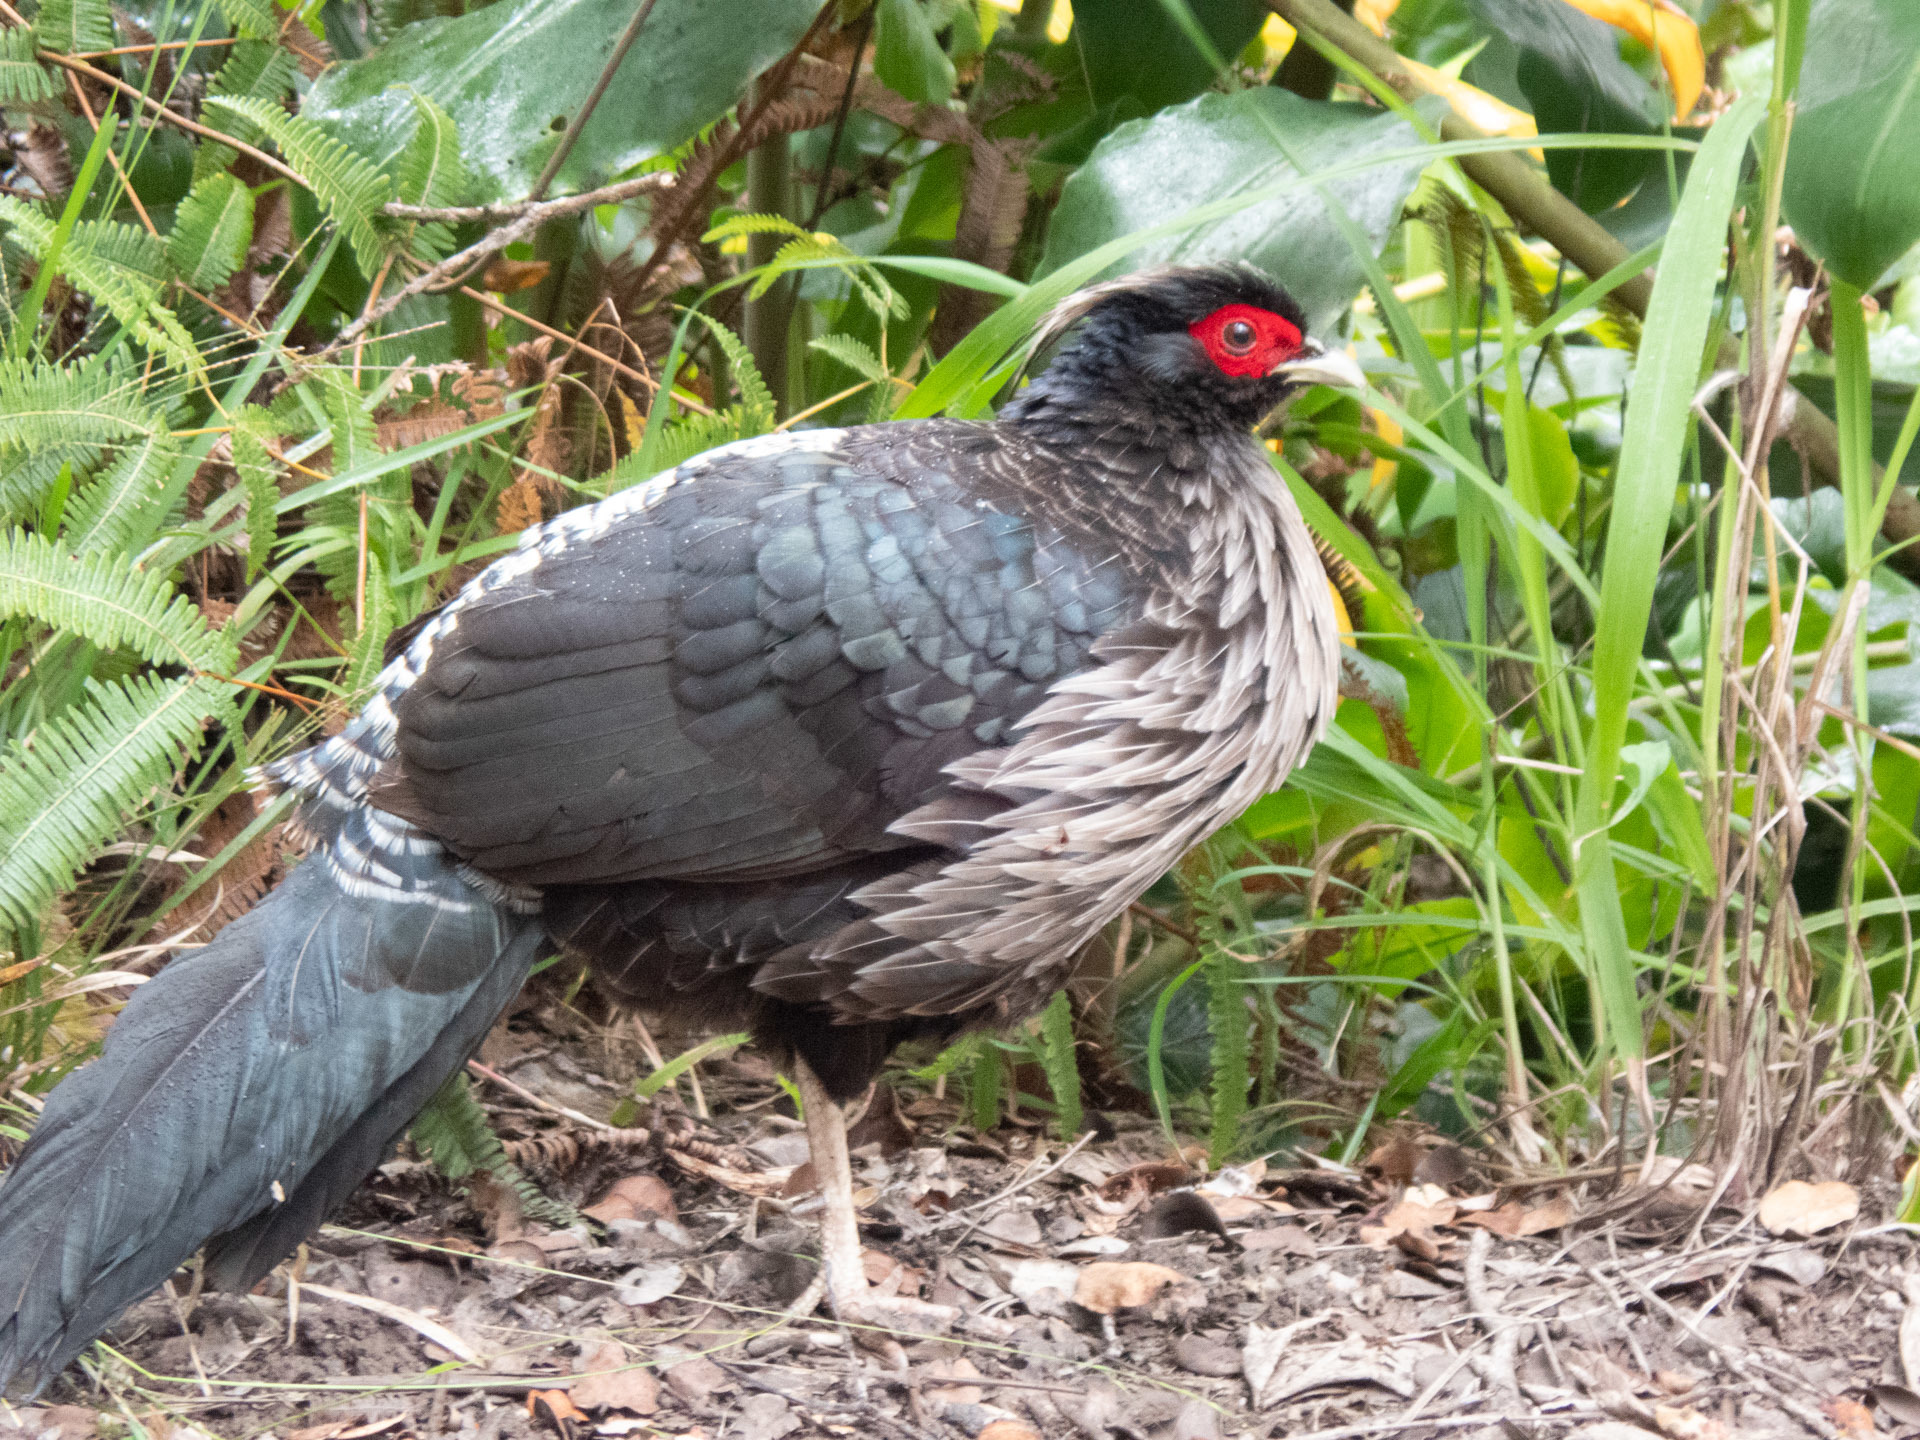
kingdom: Animalia
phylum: Chordata
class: Aves
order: Galliformes
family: Phasianidae
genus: Lophura
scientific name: Lophura leucomelanos
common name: Kalij pheasant
